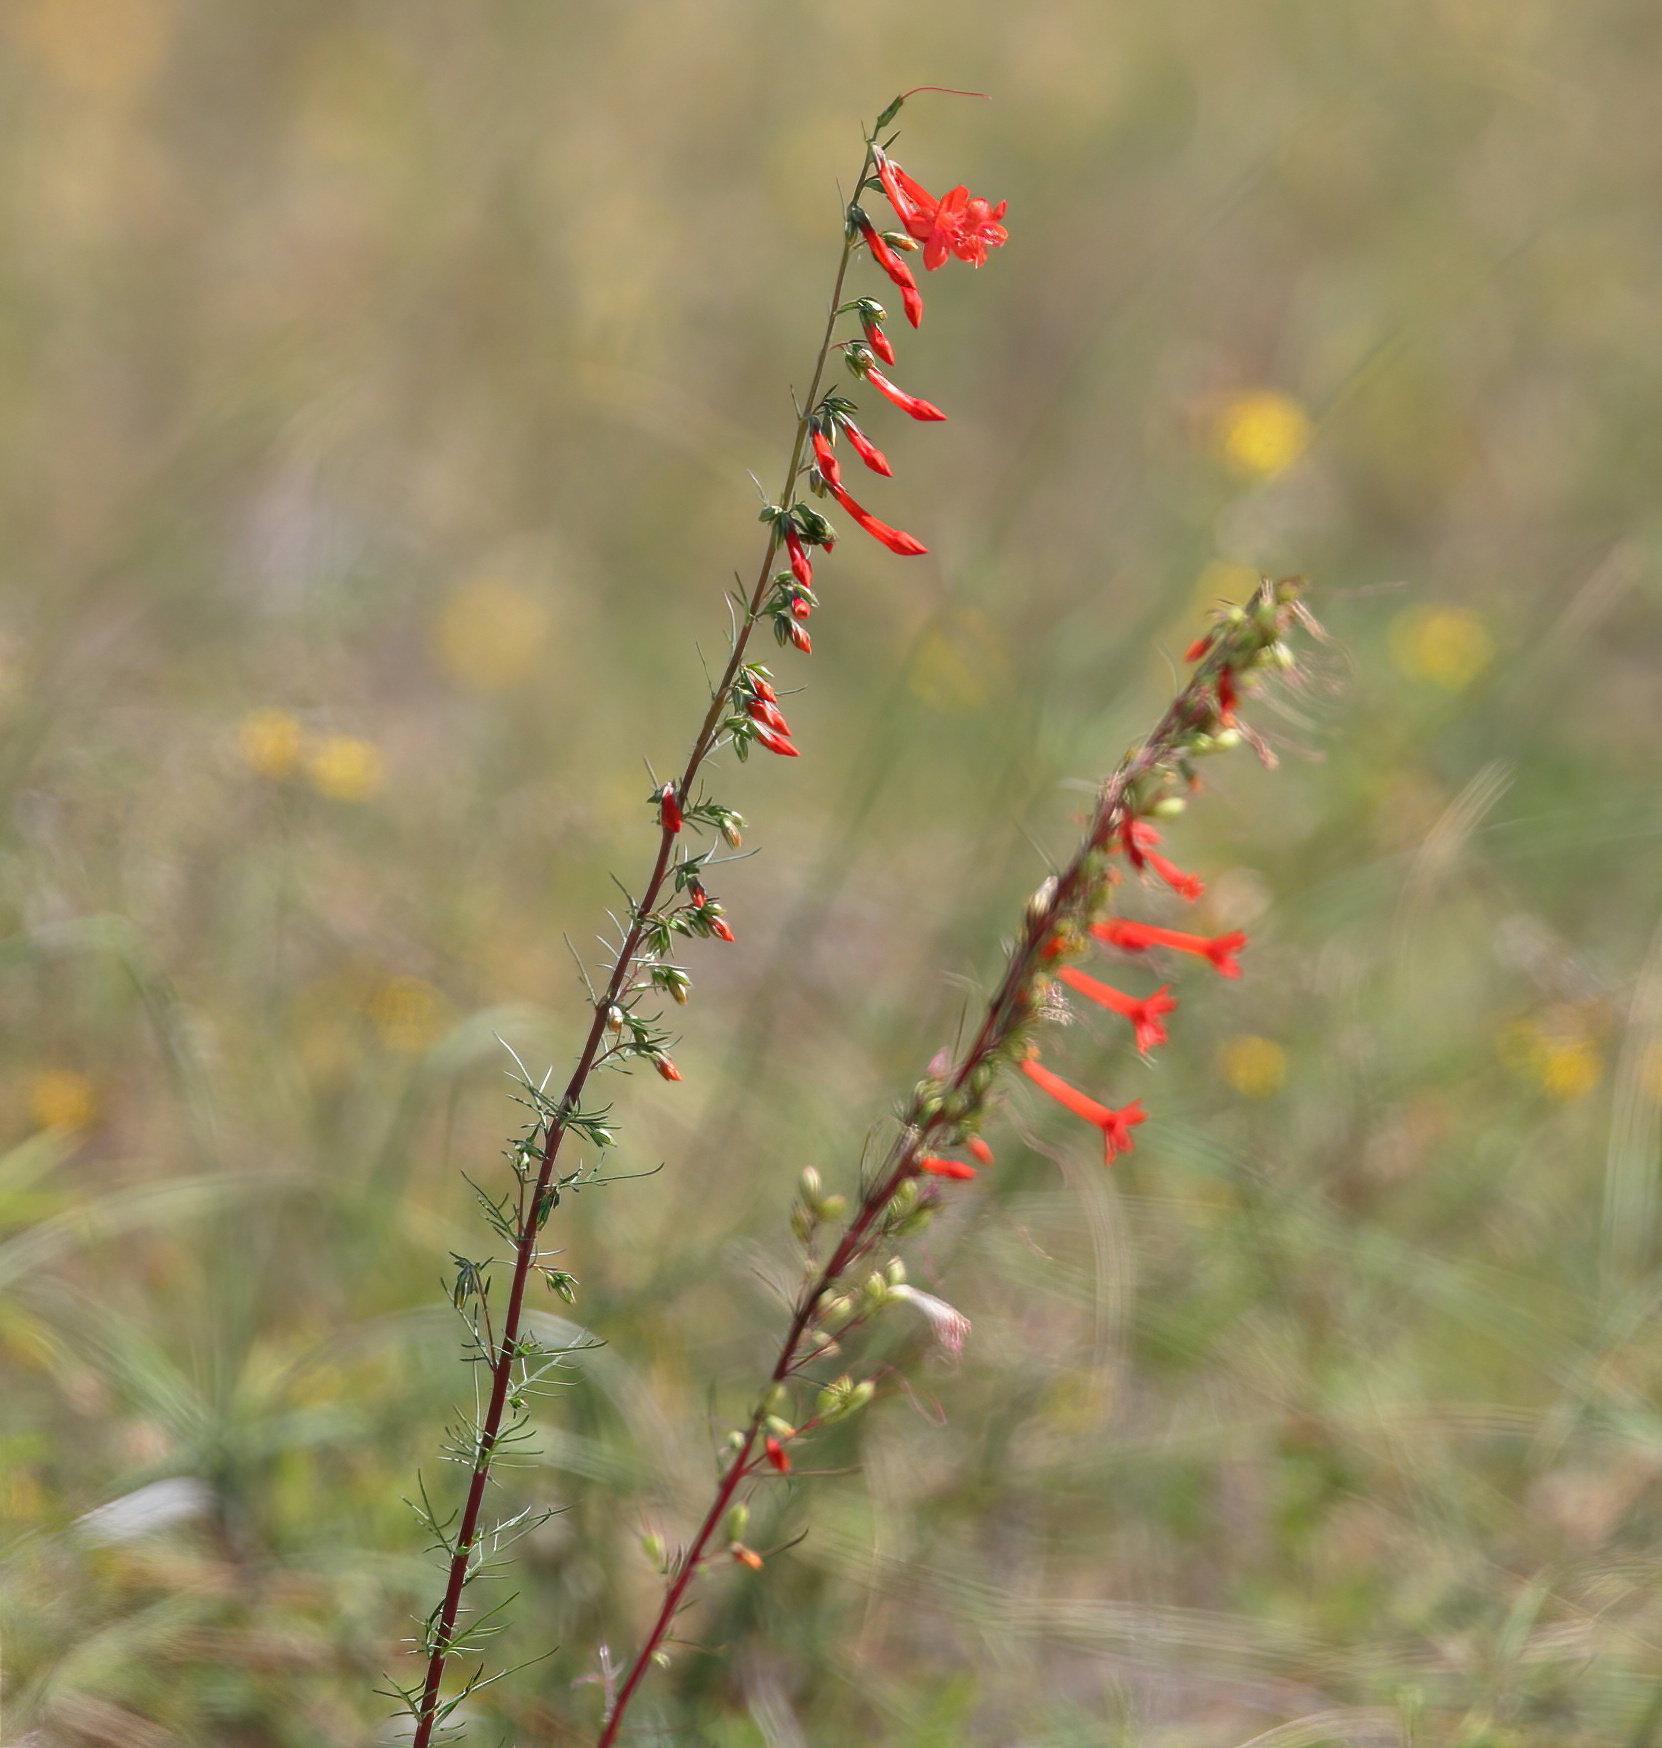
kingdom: Plantae
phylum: Tracheophyta
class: Magnoliopsida
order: Ericales
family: Polemoniaceae
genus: Ipomopsis
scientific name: Ipomopsis rubra
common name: Skyrocket
